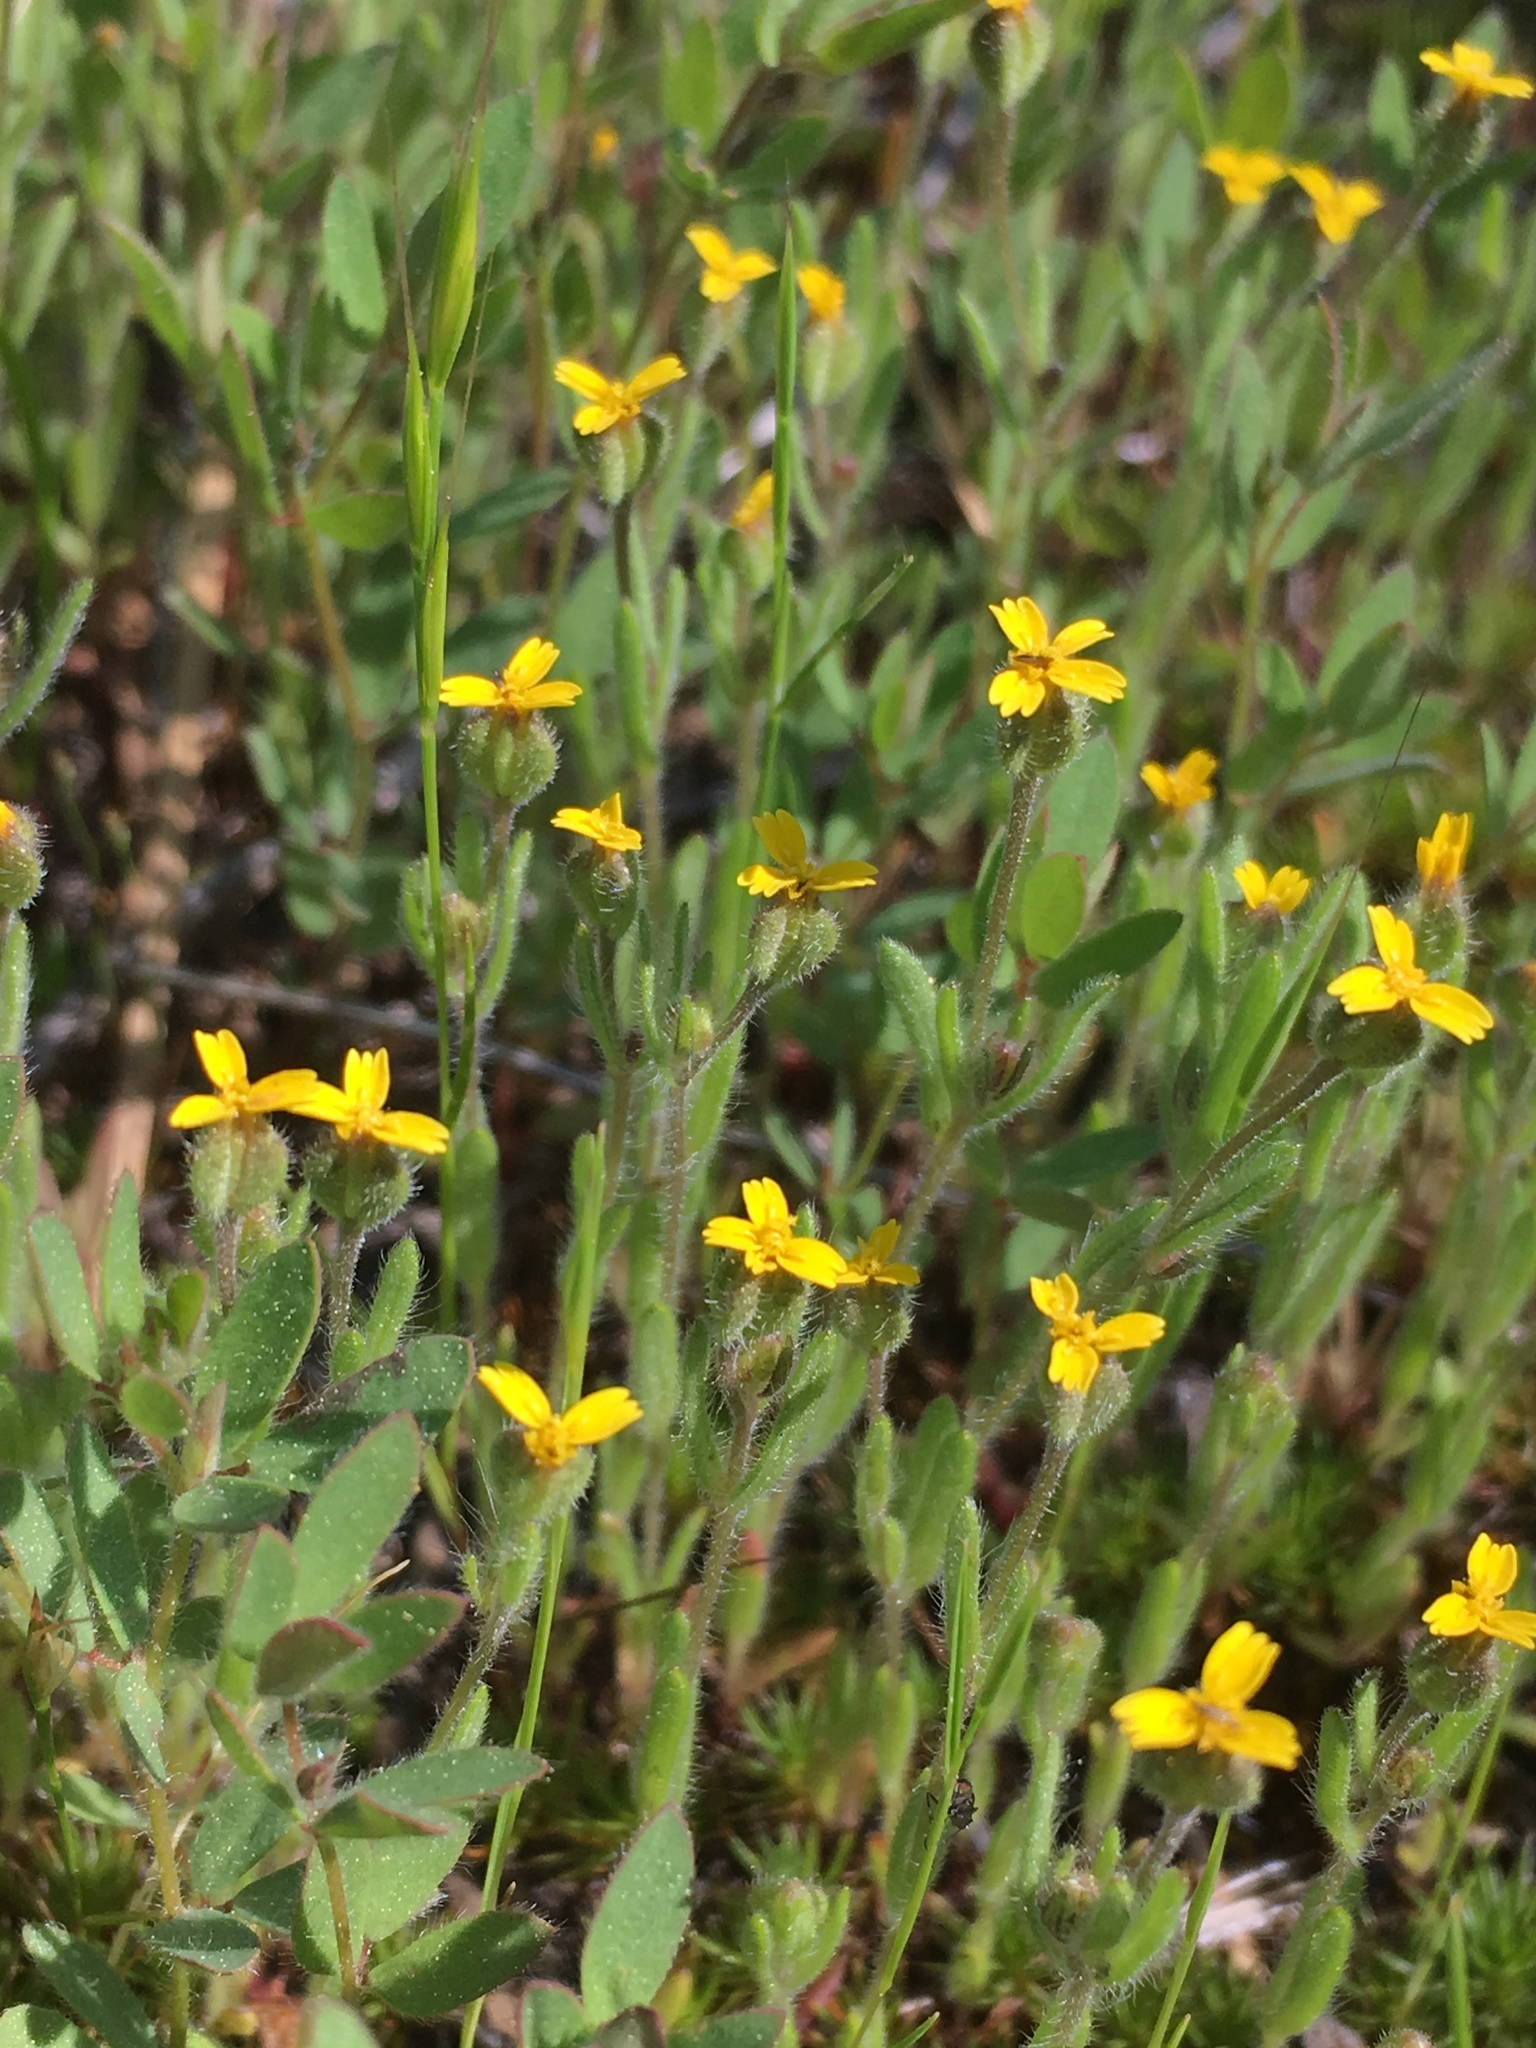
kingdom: Plantae
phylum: Tracheophyta
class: Magnoliopsida
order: Asterales
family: Asteraceae
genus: Jensia
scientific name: Jensia yosemitana
